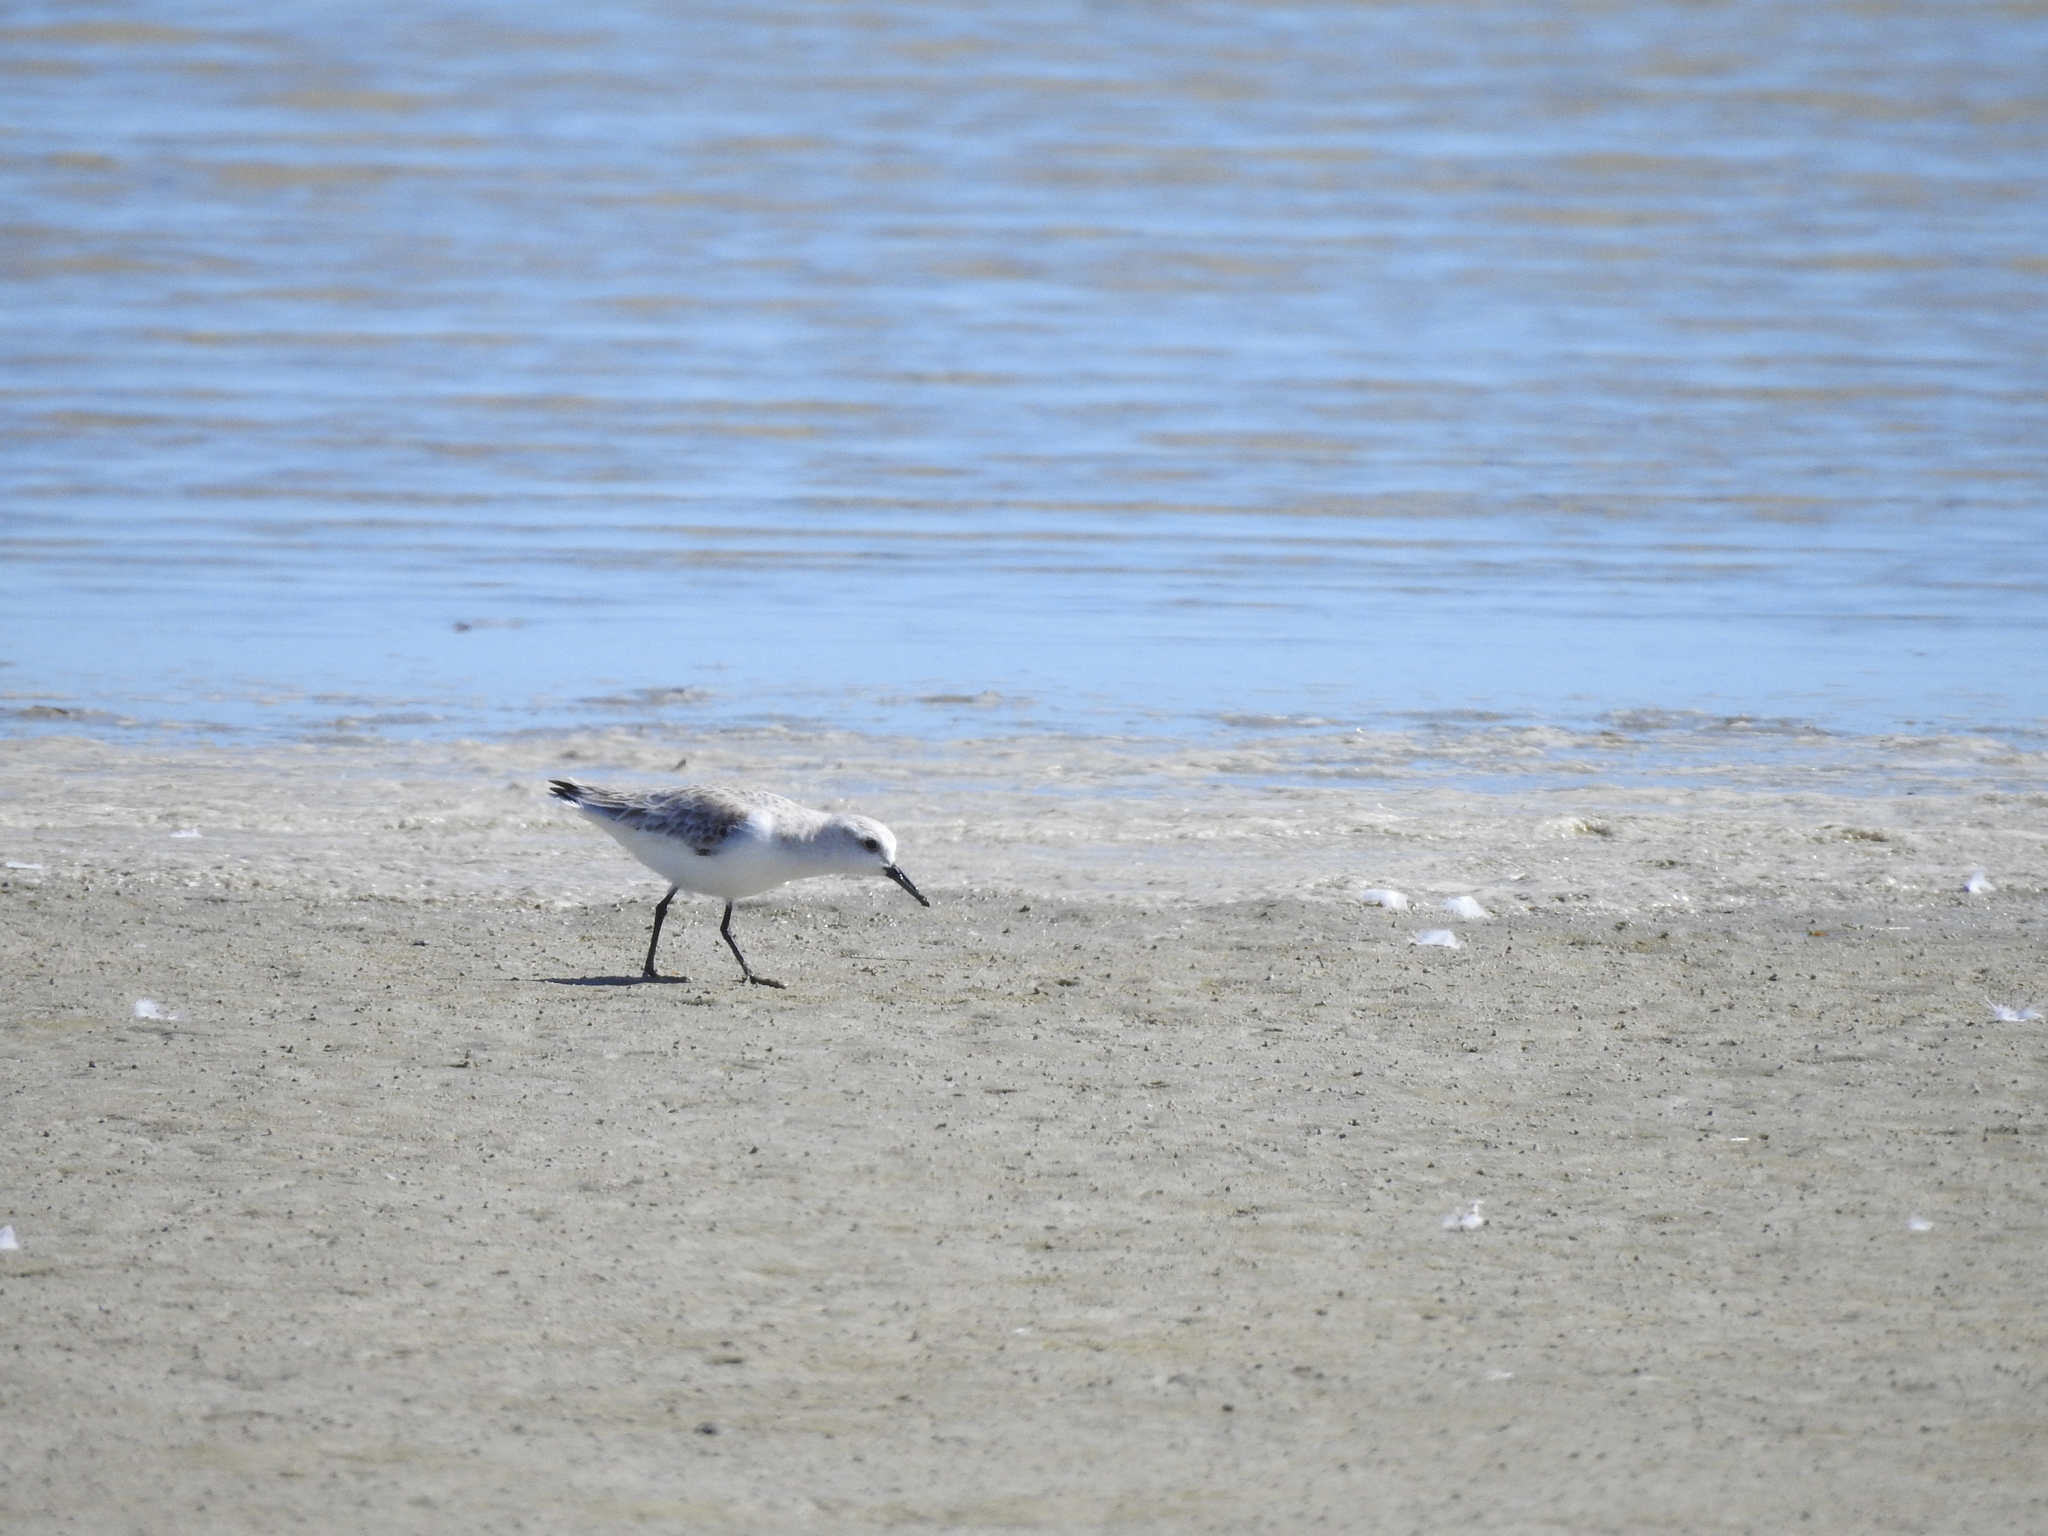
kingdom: Animalia
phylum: Chordata
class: Aves
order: Charadriiformes
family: Scolopacidae
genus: Calidris
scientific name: Calidris alba
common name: Sanderling
